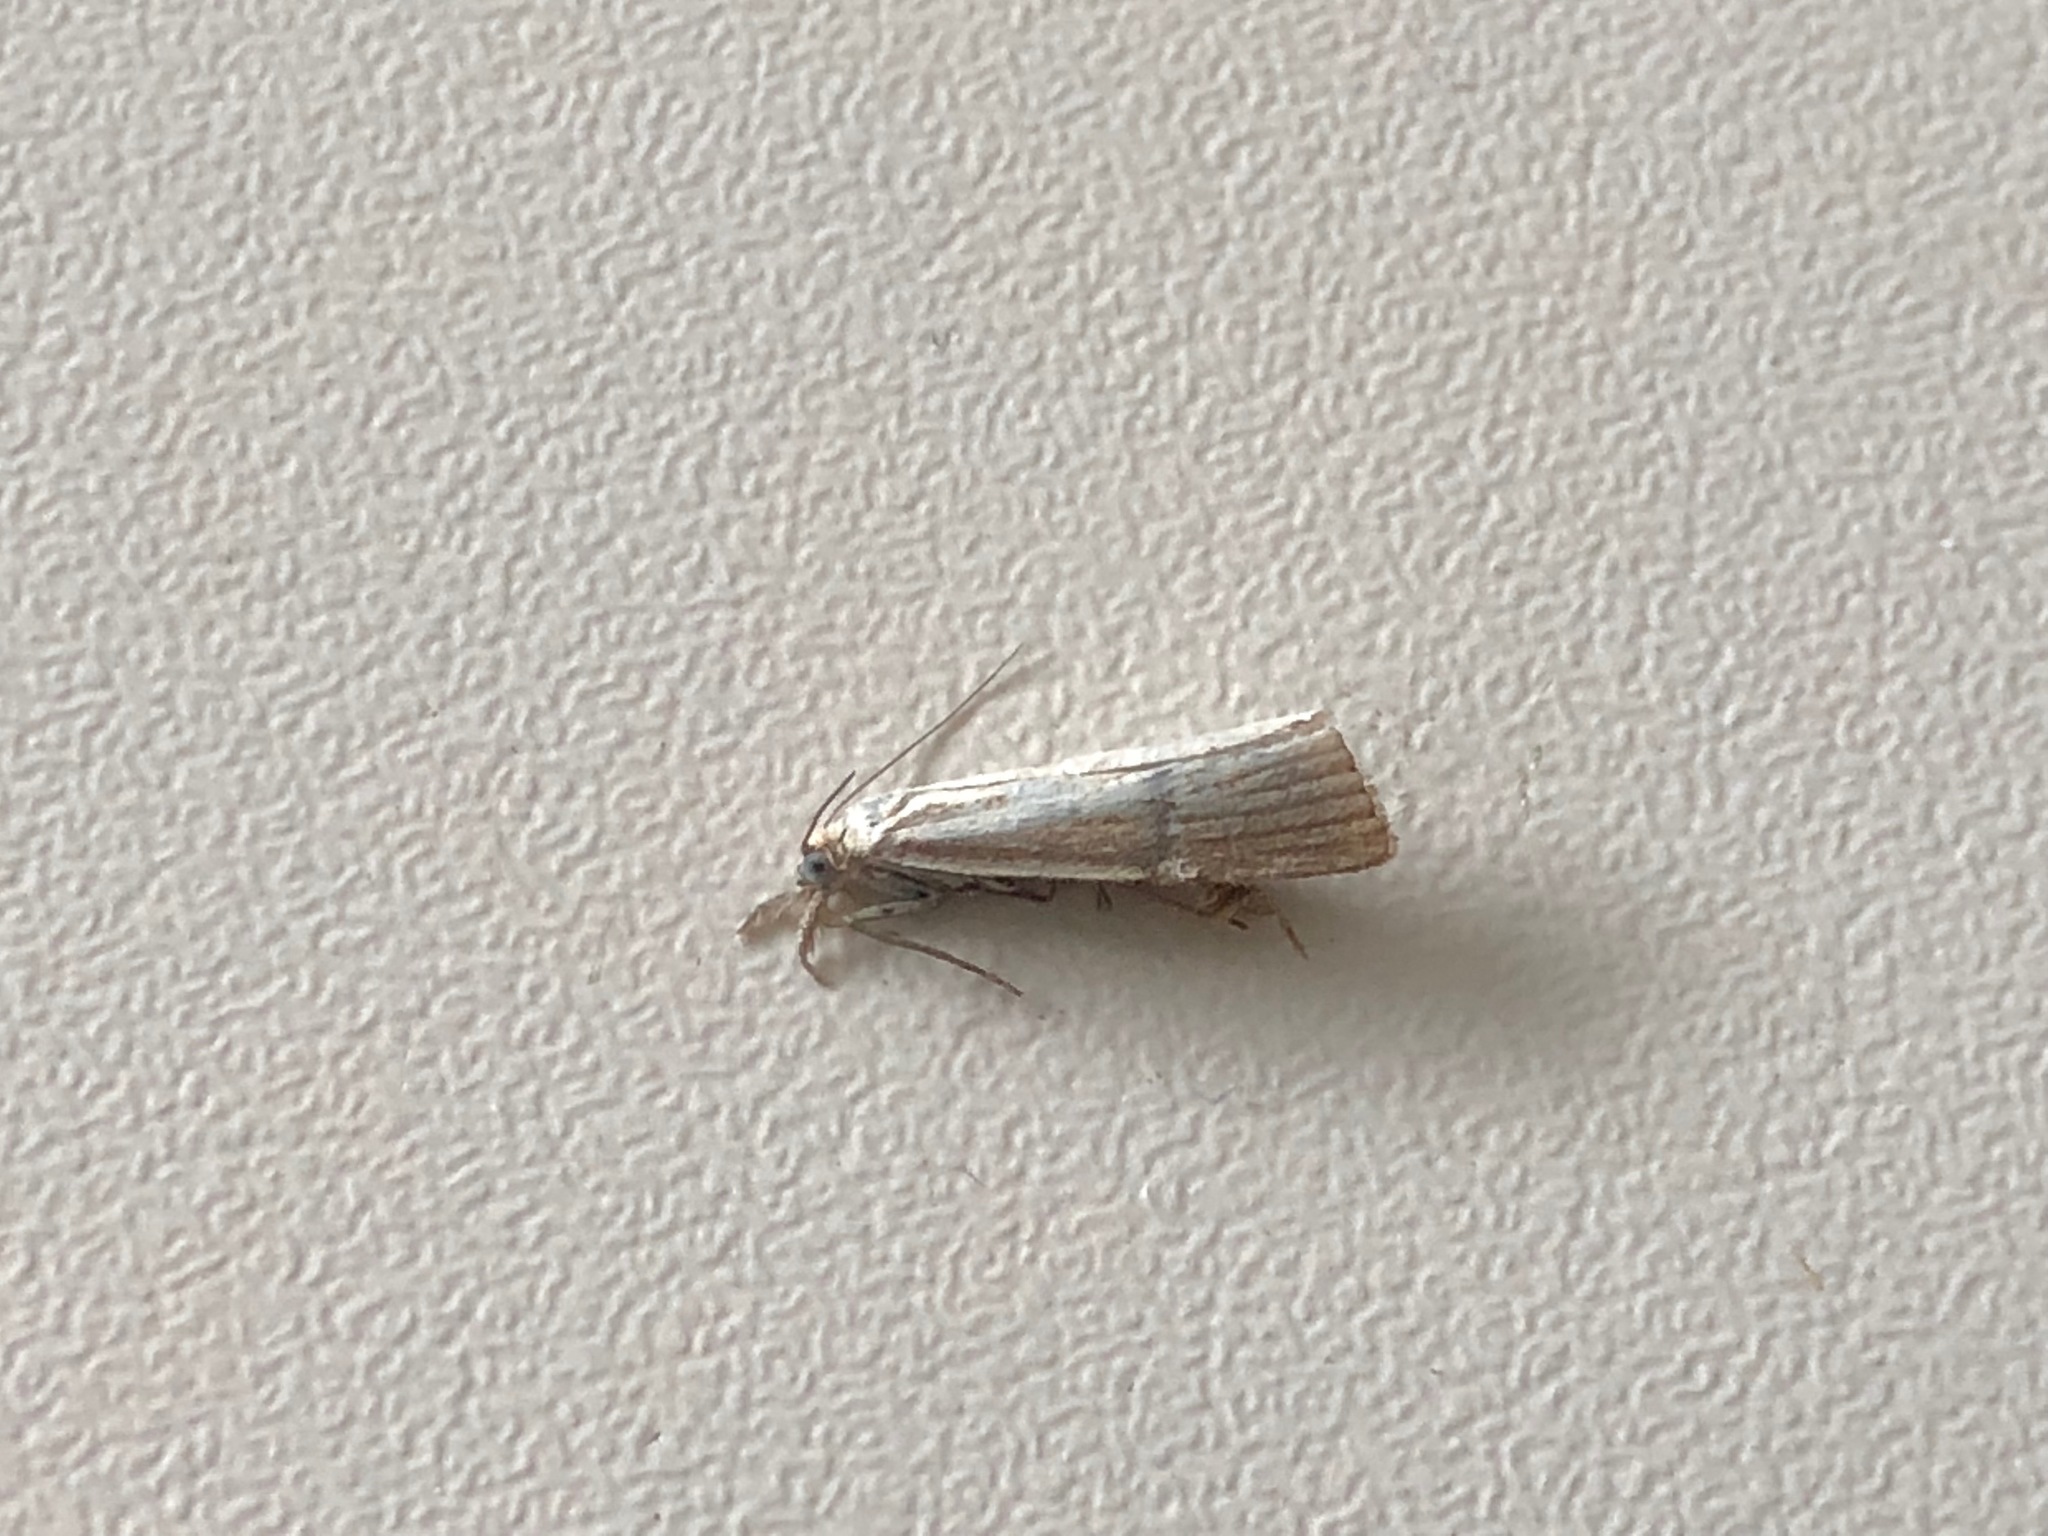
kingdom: Animalia
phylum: Arthropoda
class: Insecta
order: Lepidoptera
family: Crambidae
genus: Agriphila
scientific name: Agriphila straminella
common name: Straw grass-veneer
